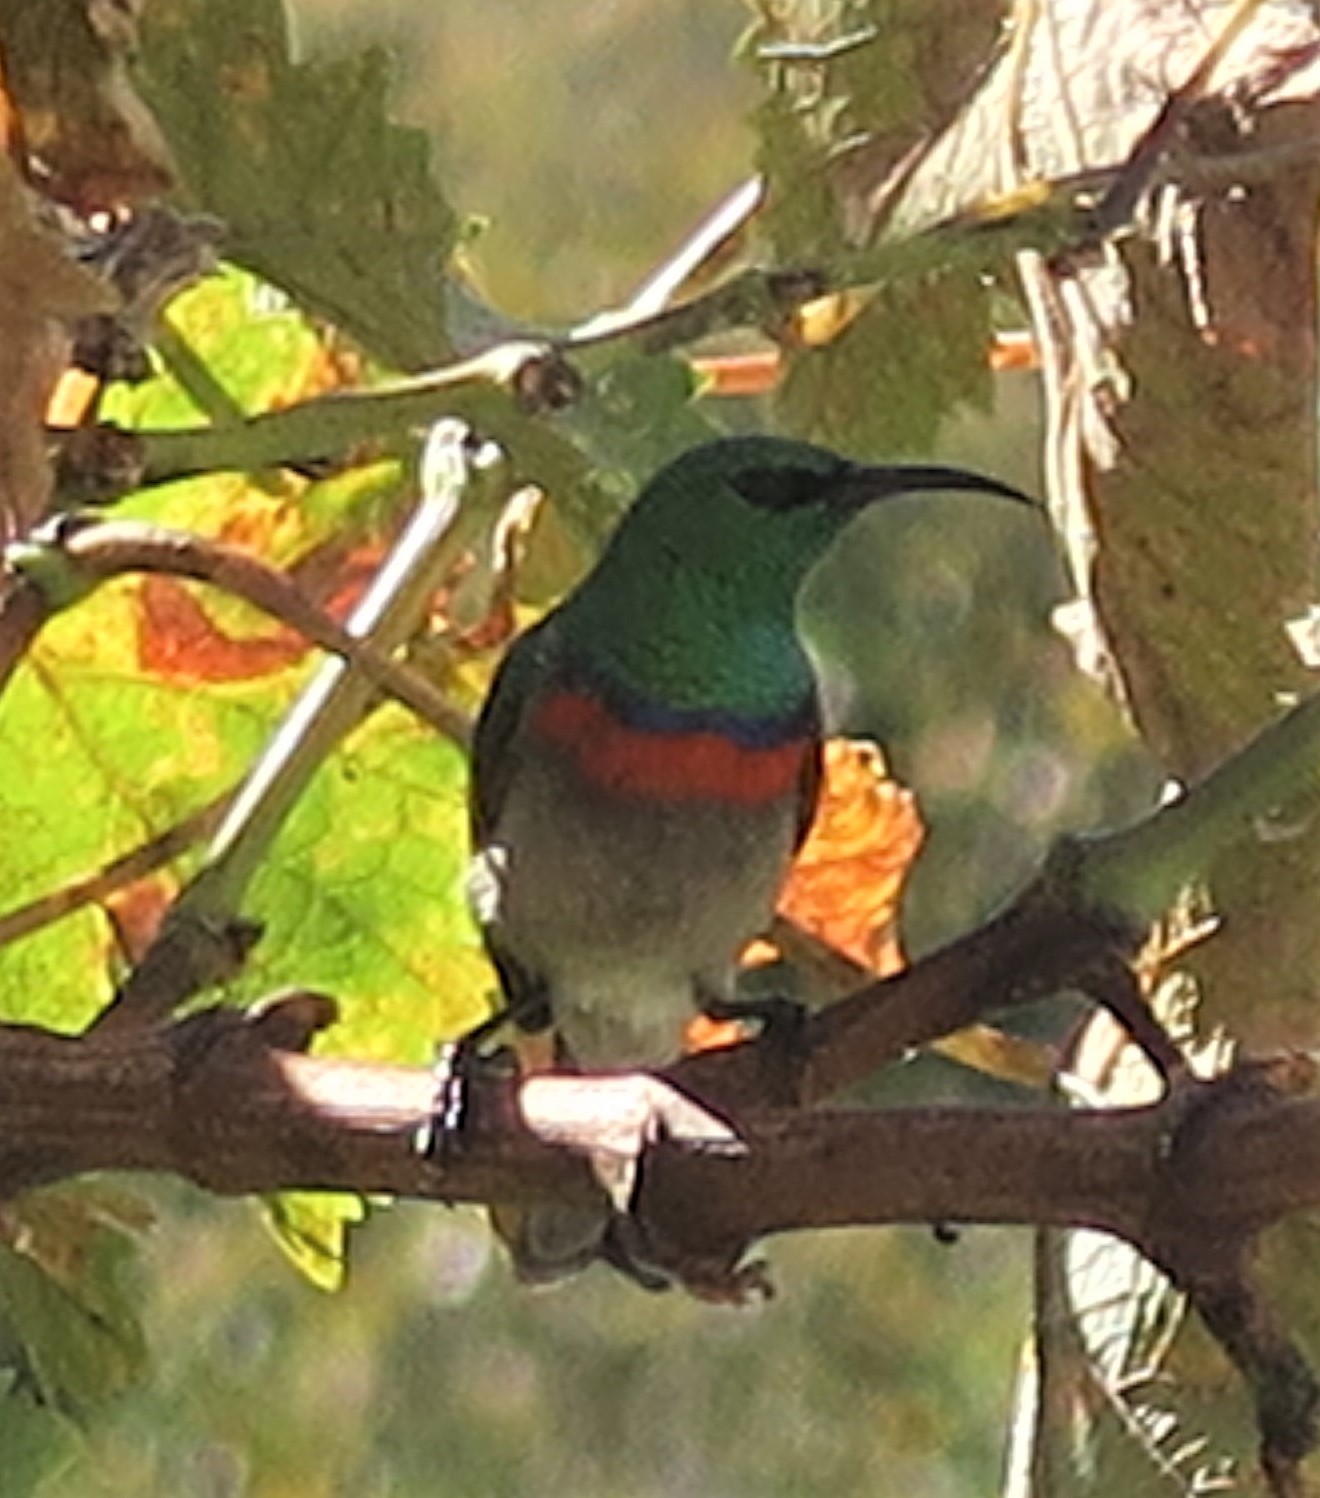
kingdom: Animalia
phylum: Chordata
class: Aves
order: Passeriformes
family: Nectariniidae
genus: Cinnyris
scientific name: Cinnyris chalybeus
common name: Southern double-collared sunbird
